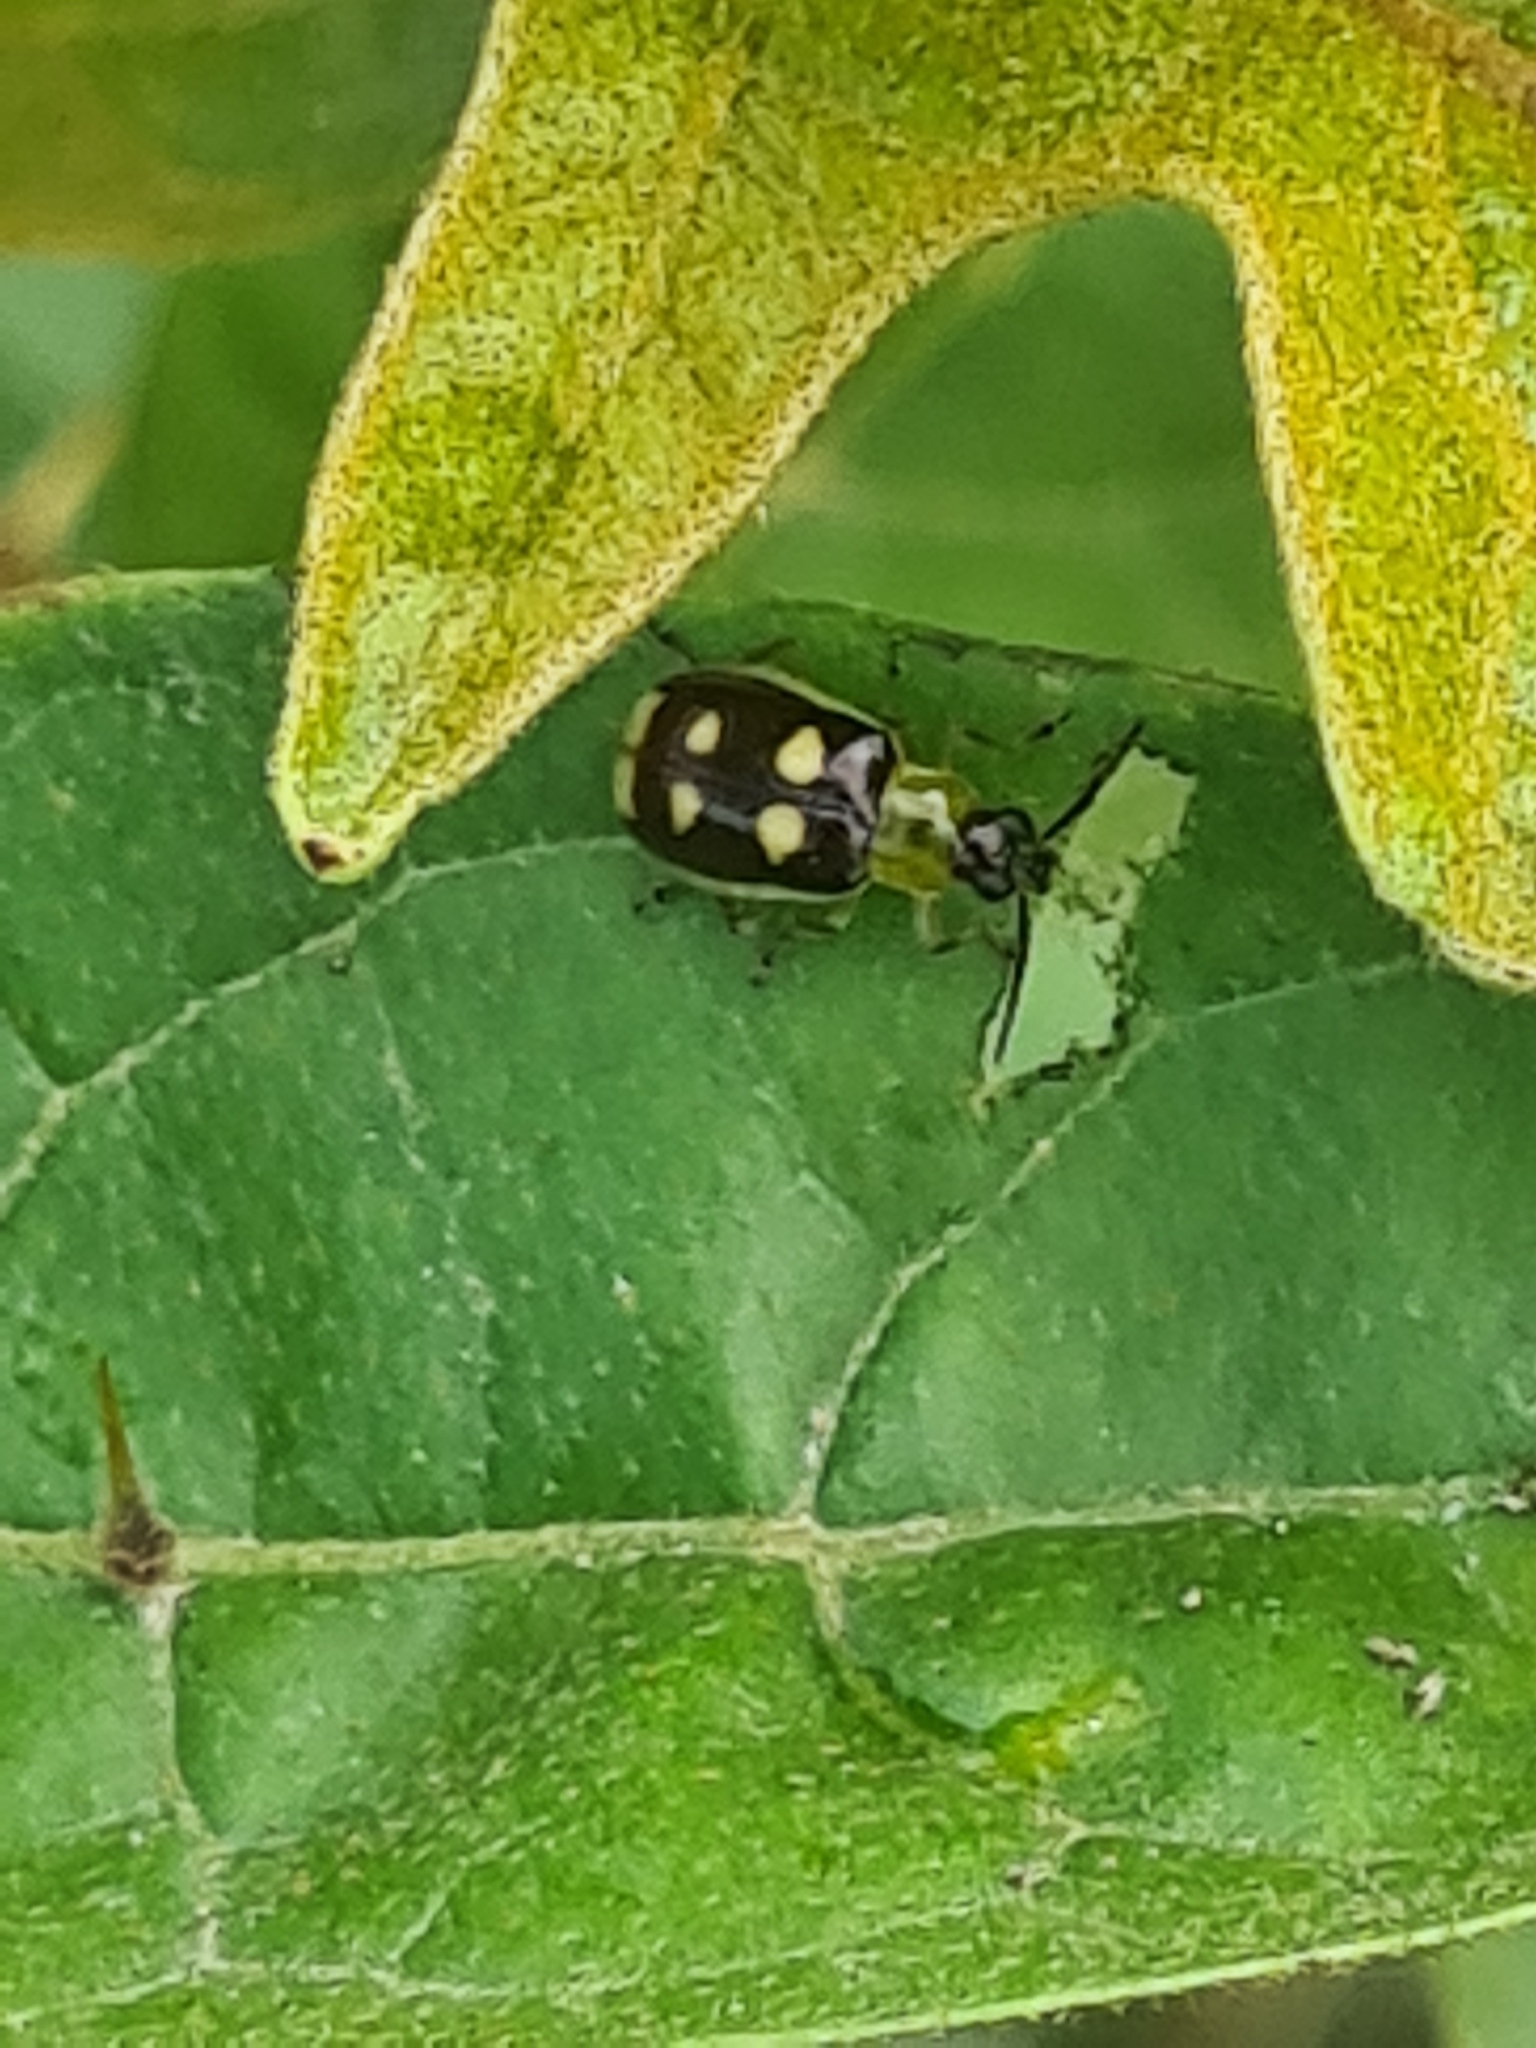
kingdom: Animalia
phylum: Arthropoda
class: Insecta
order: Coleoptera
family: Chrysomelidae
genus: Basiprionota
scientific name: Basiprionota sinuata
